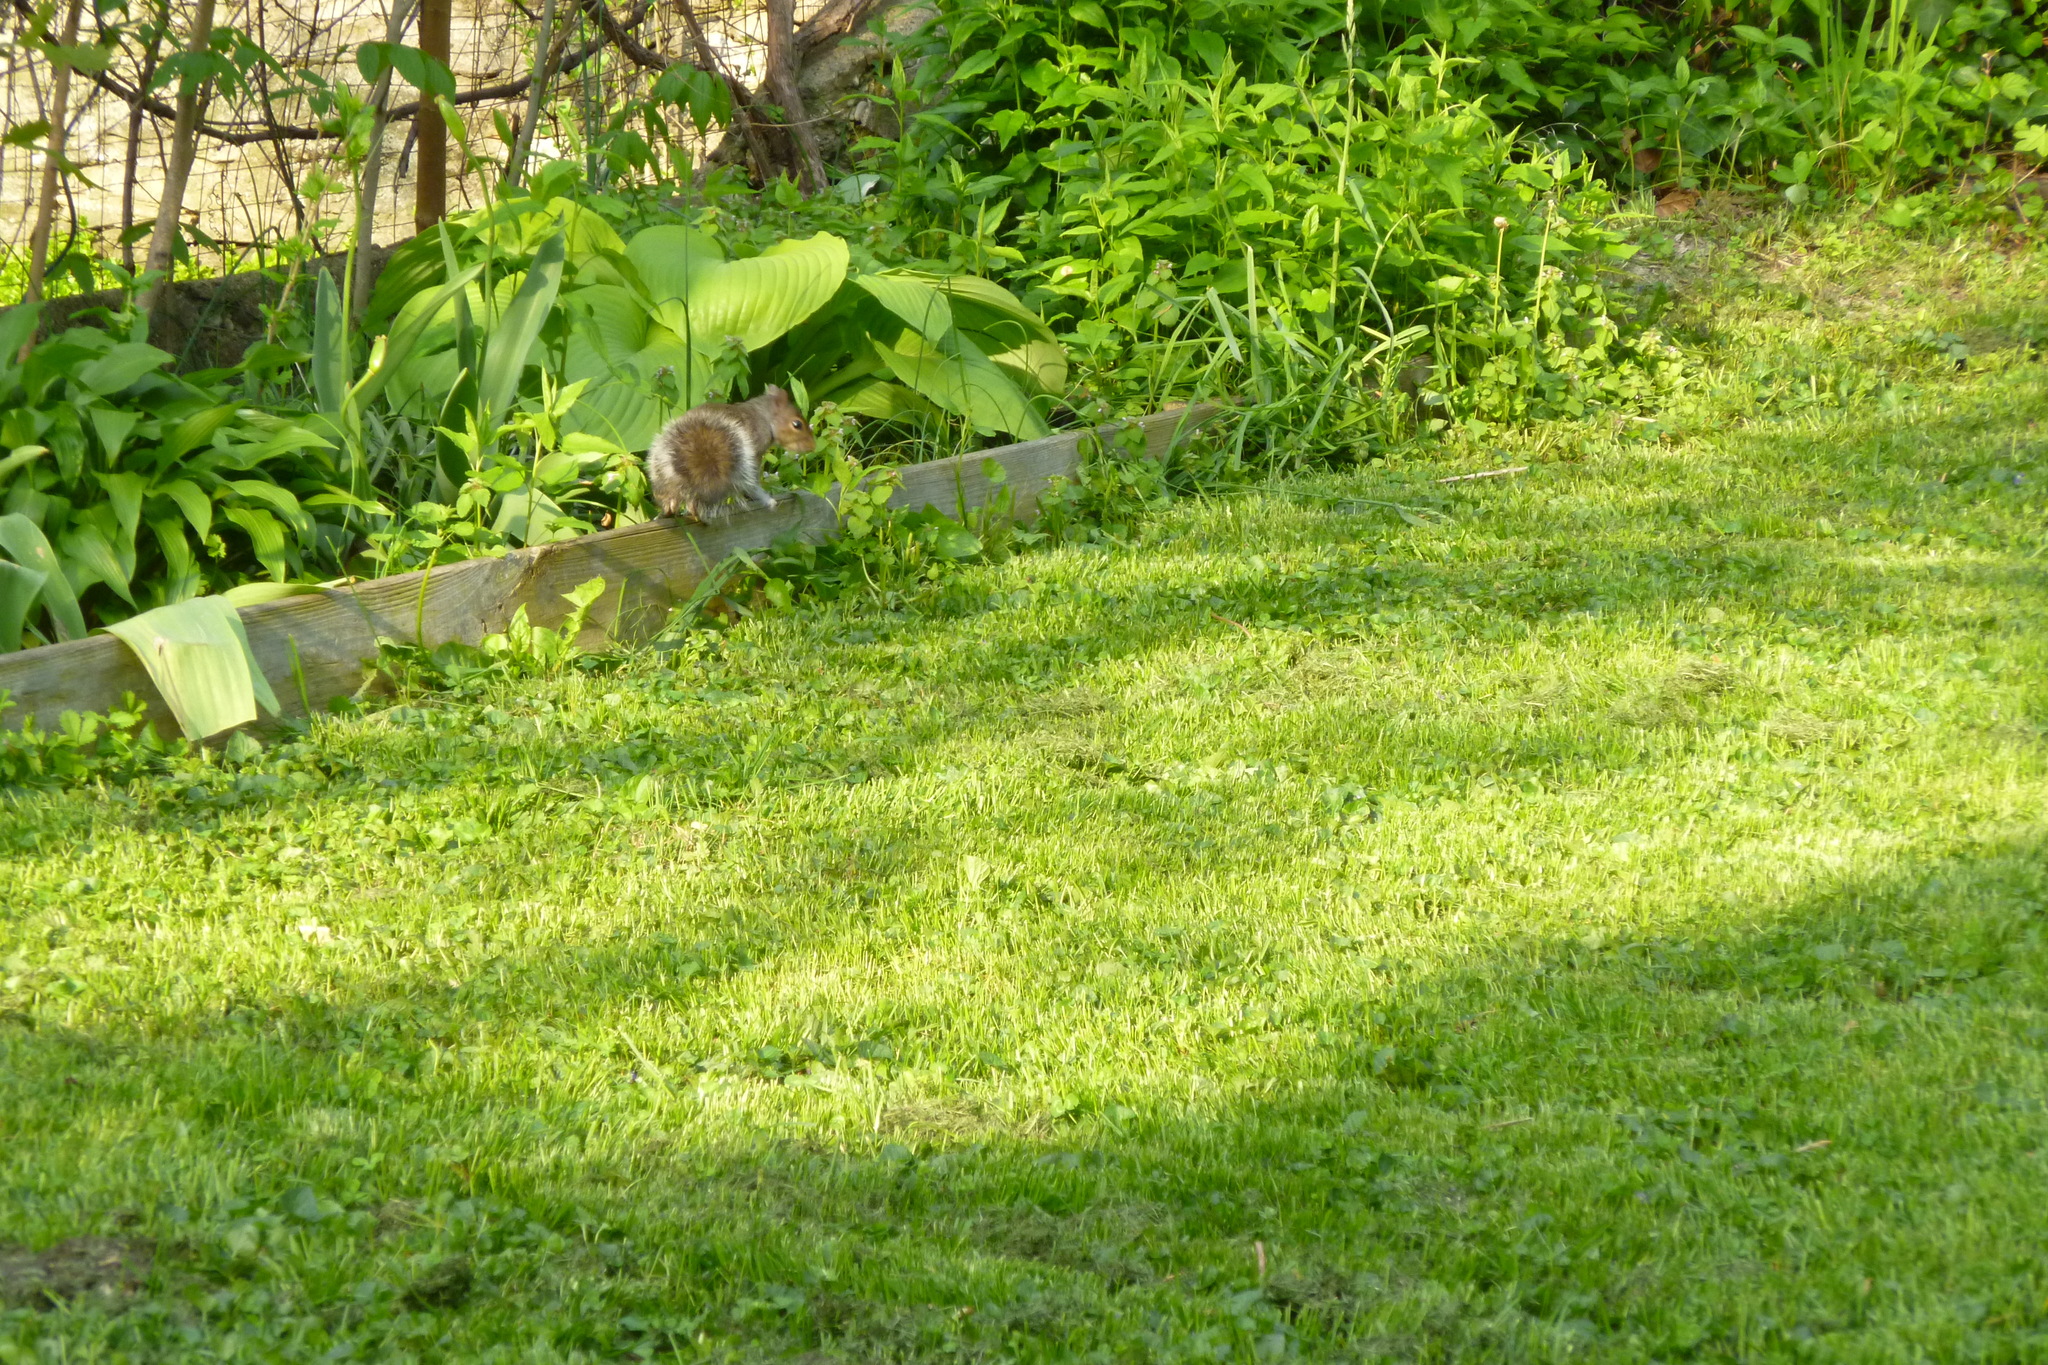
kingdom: Animalia
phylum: Chordata
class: Mammalia
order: Rodentia
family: Sciuridae
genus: Sciurus
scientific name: Sciurus carolinensis
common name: Eastern gray squirrel
